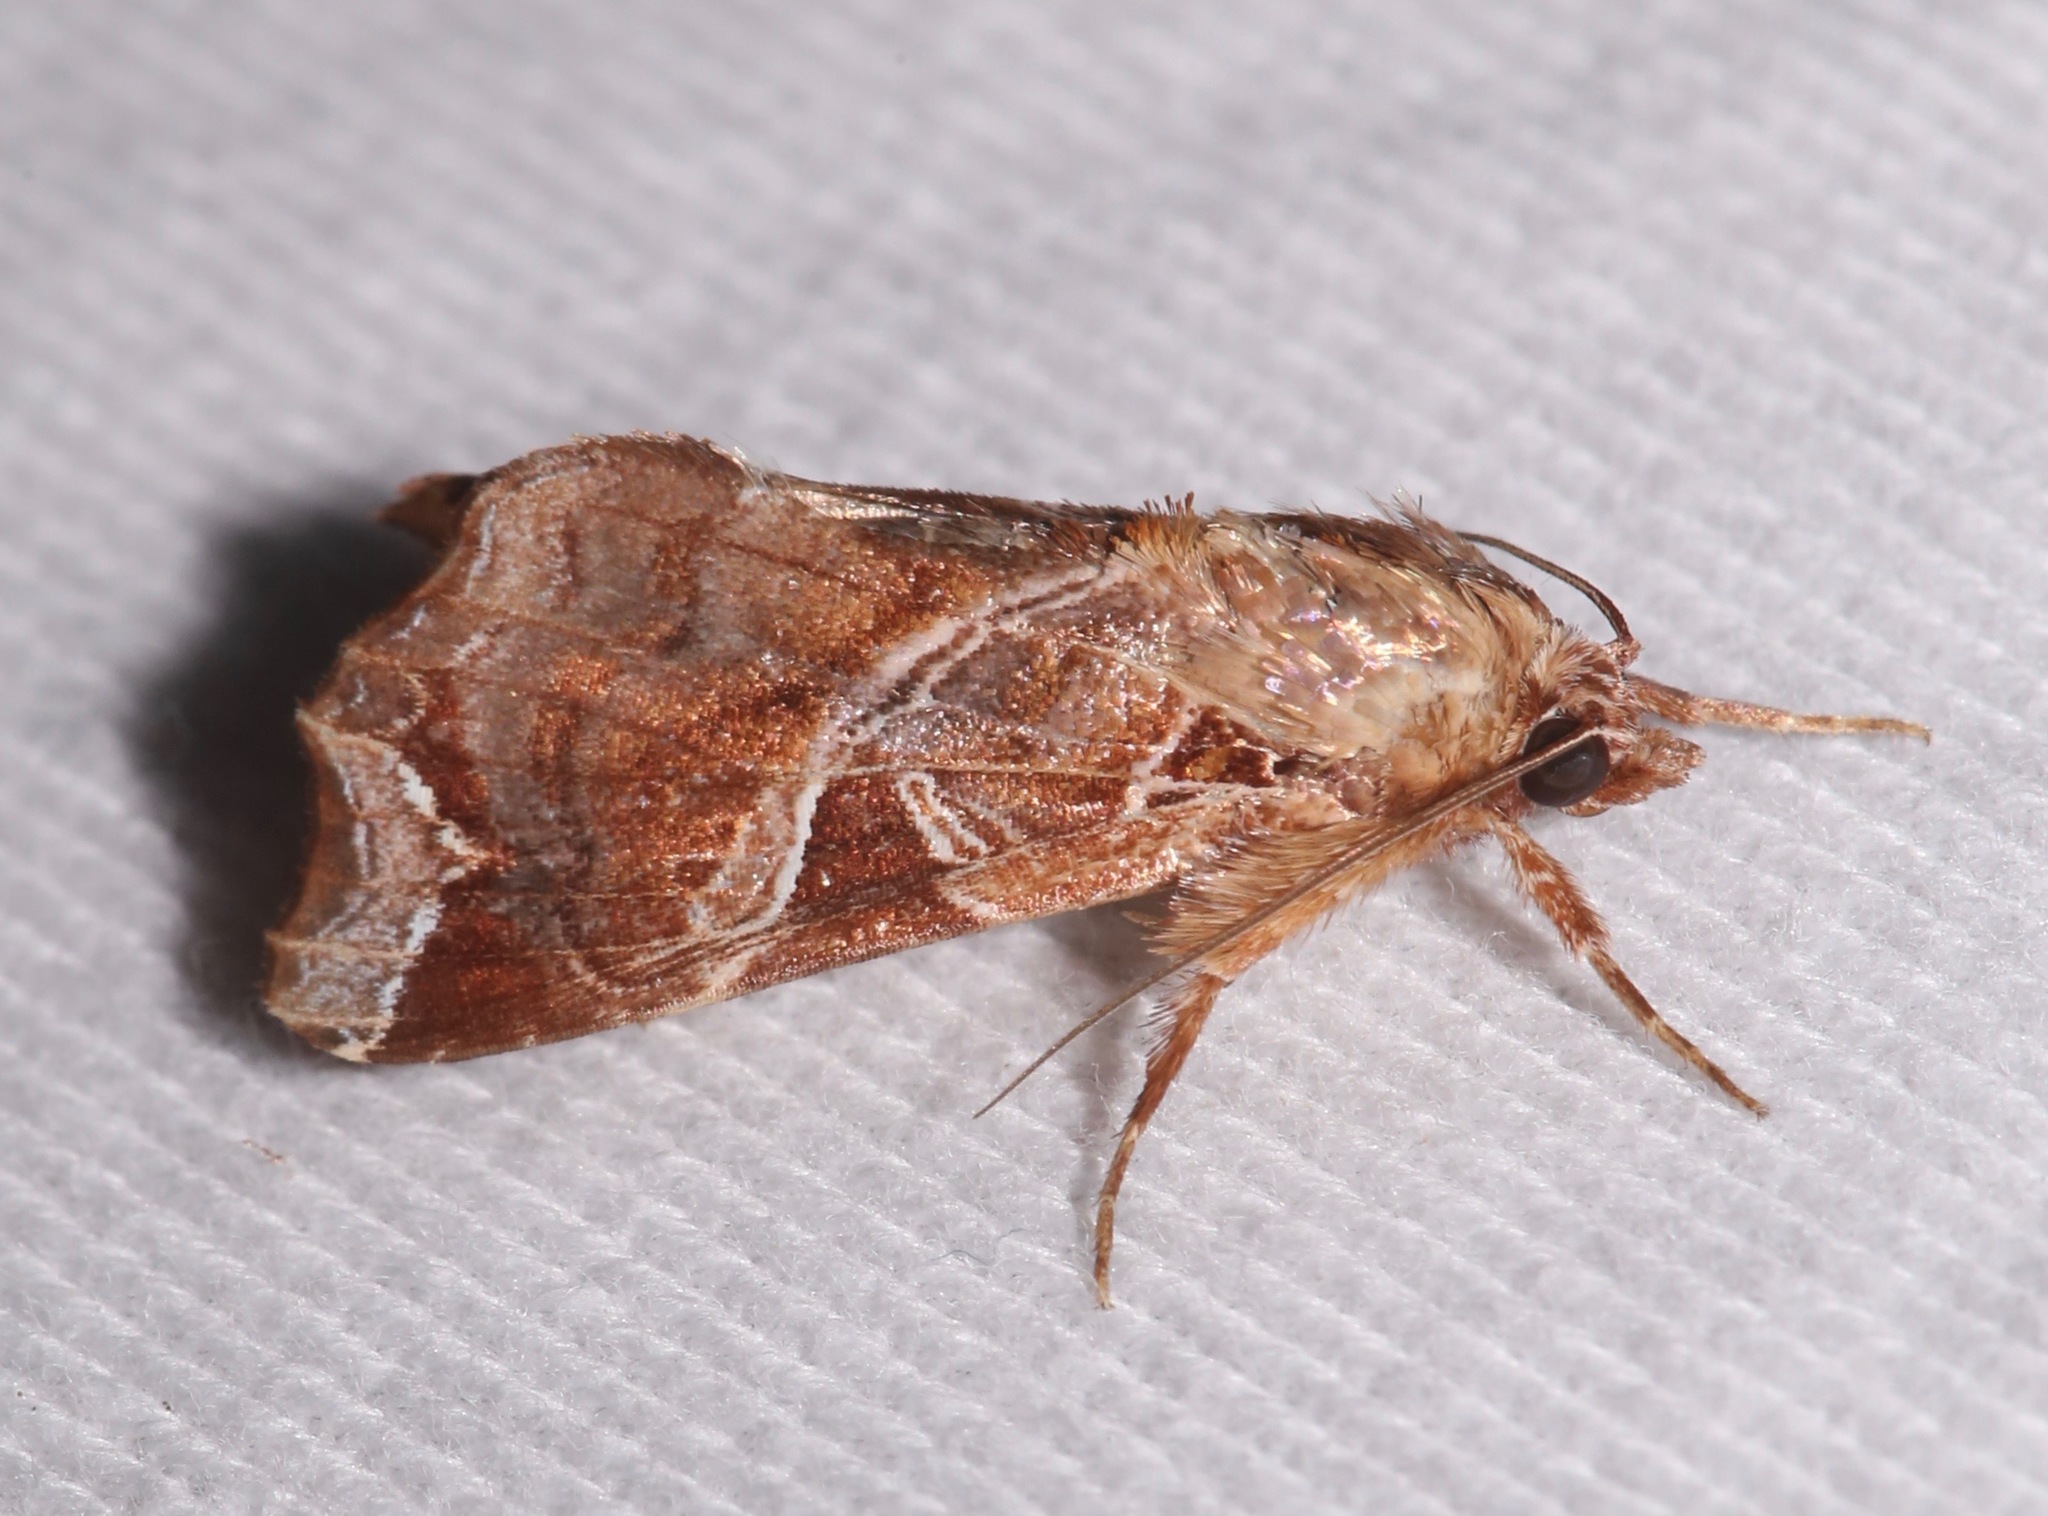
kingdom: Animalia
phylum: Arthropoda
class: Insecta
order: Lepidoptera
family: Noctuidae
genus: Callopistria
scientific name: Callopistria floridensis
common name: Florida fern moth
